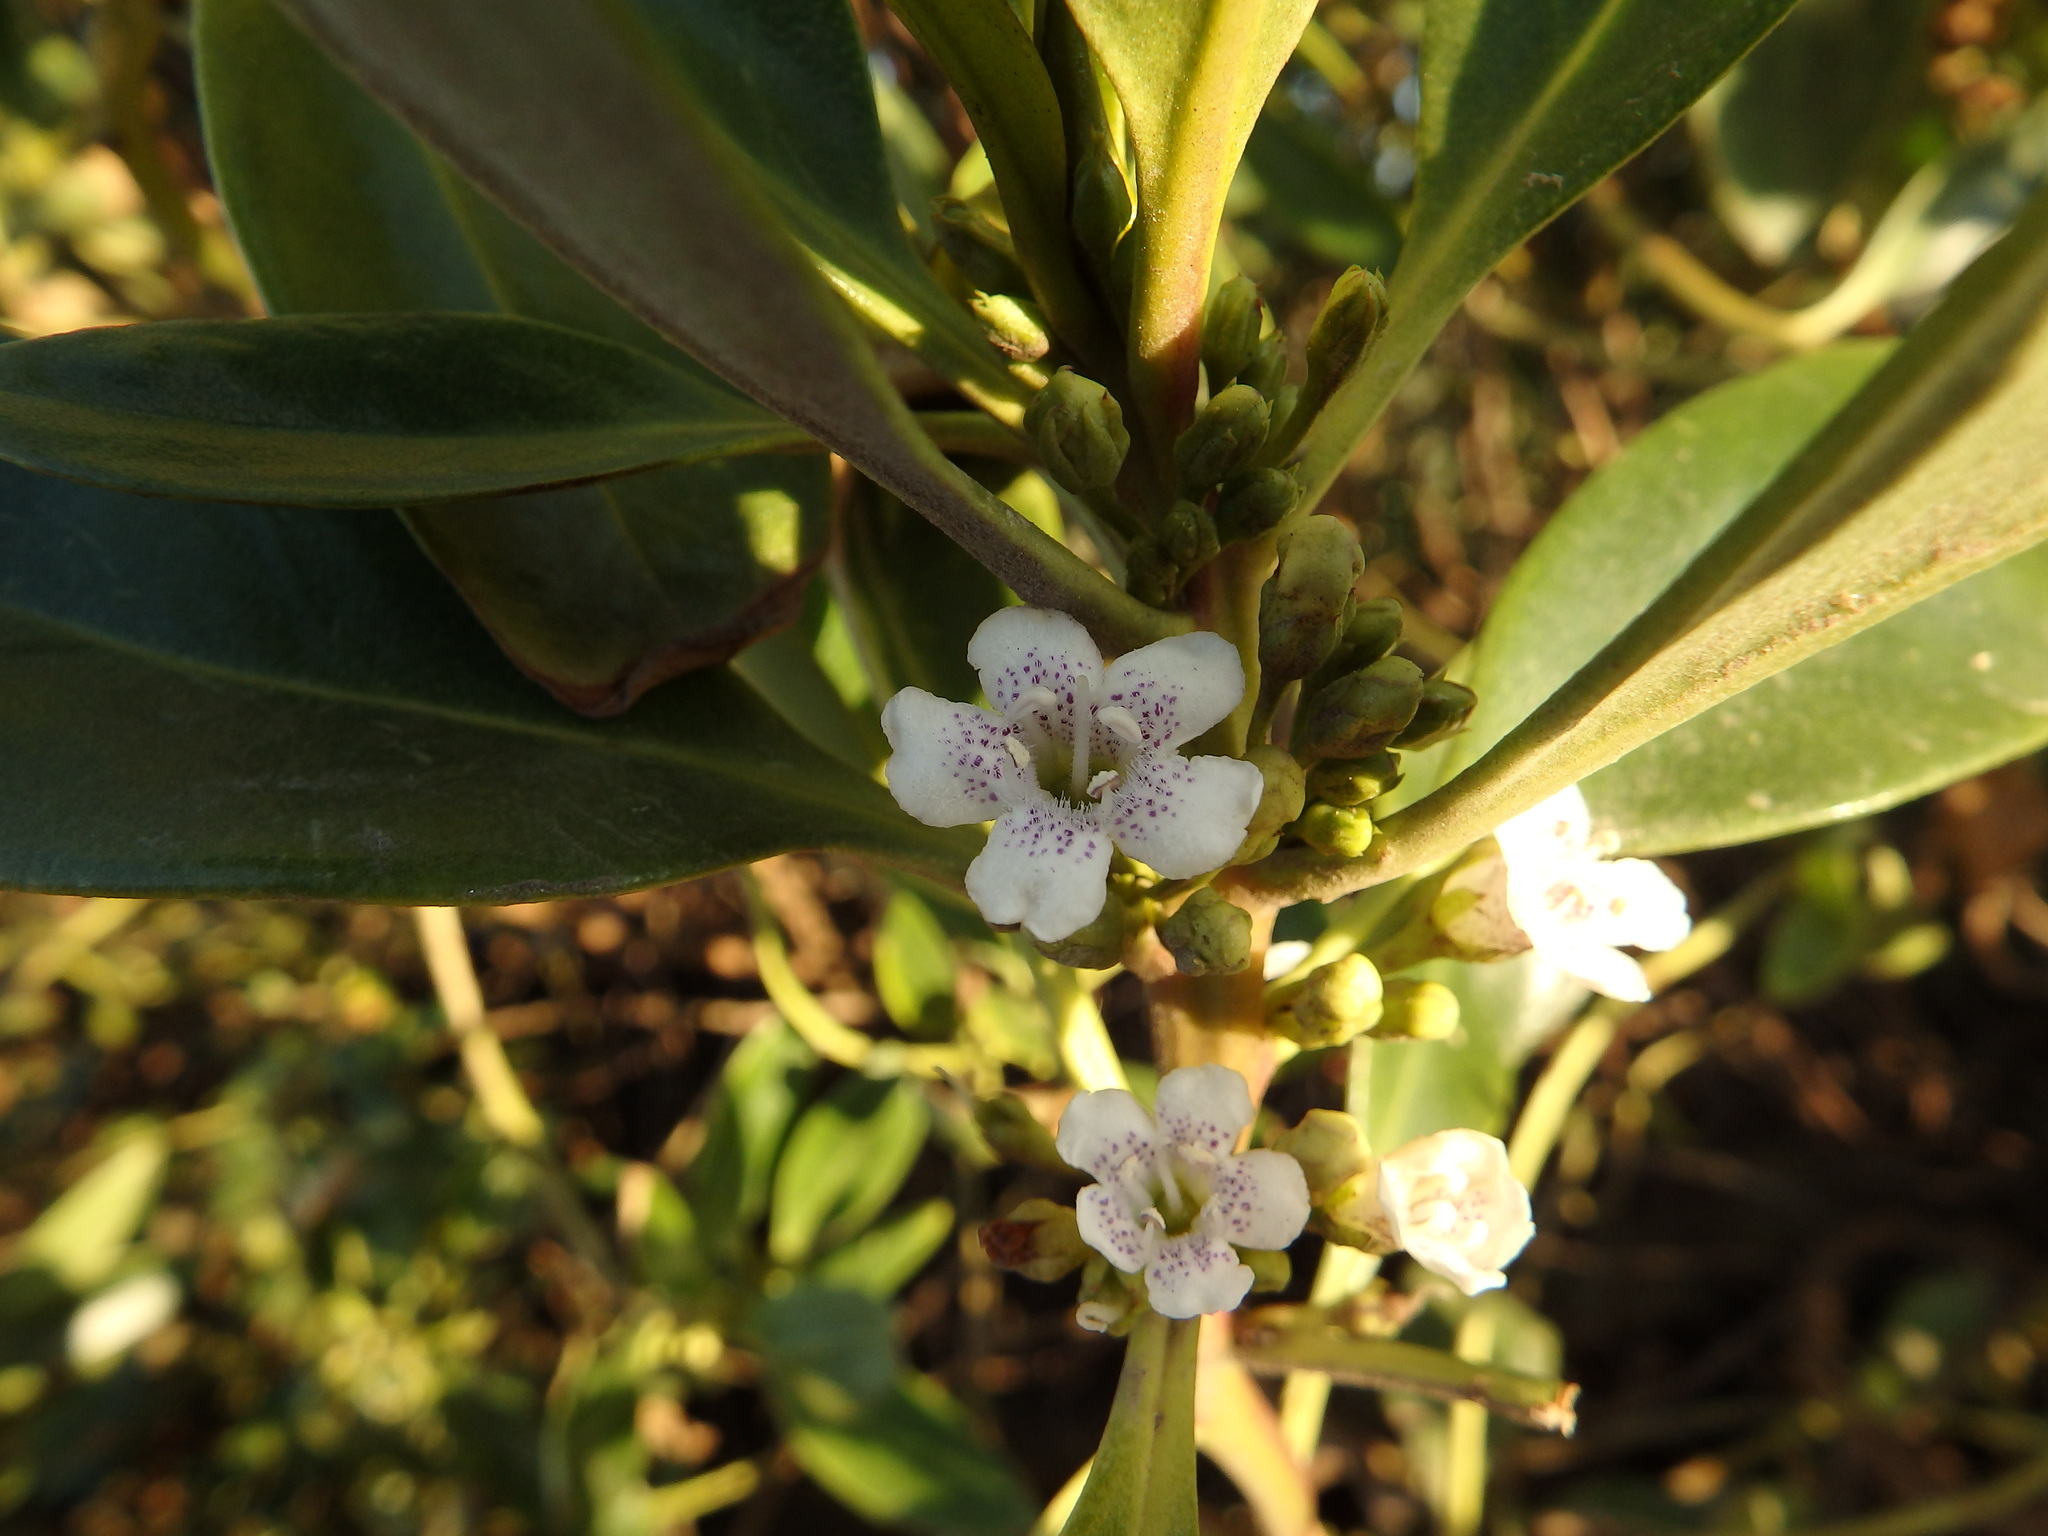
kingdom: Plantae
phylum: Tracheophyta
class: Magnoliopsida
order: Lamiales
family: Scrophulariaceae
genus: Myoporum
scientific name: Myoporum laetum
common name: Ngaio tree
